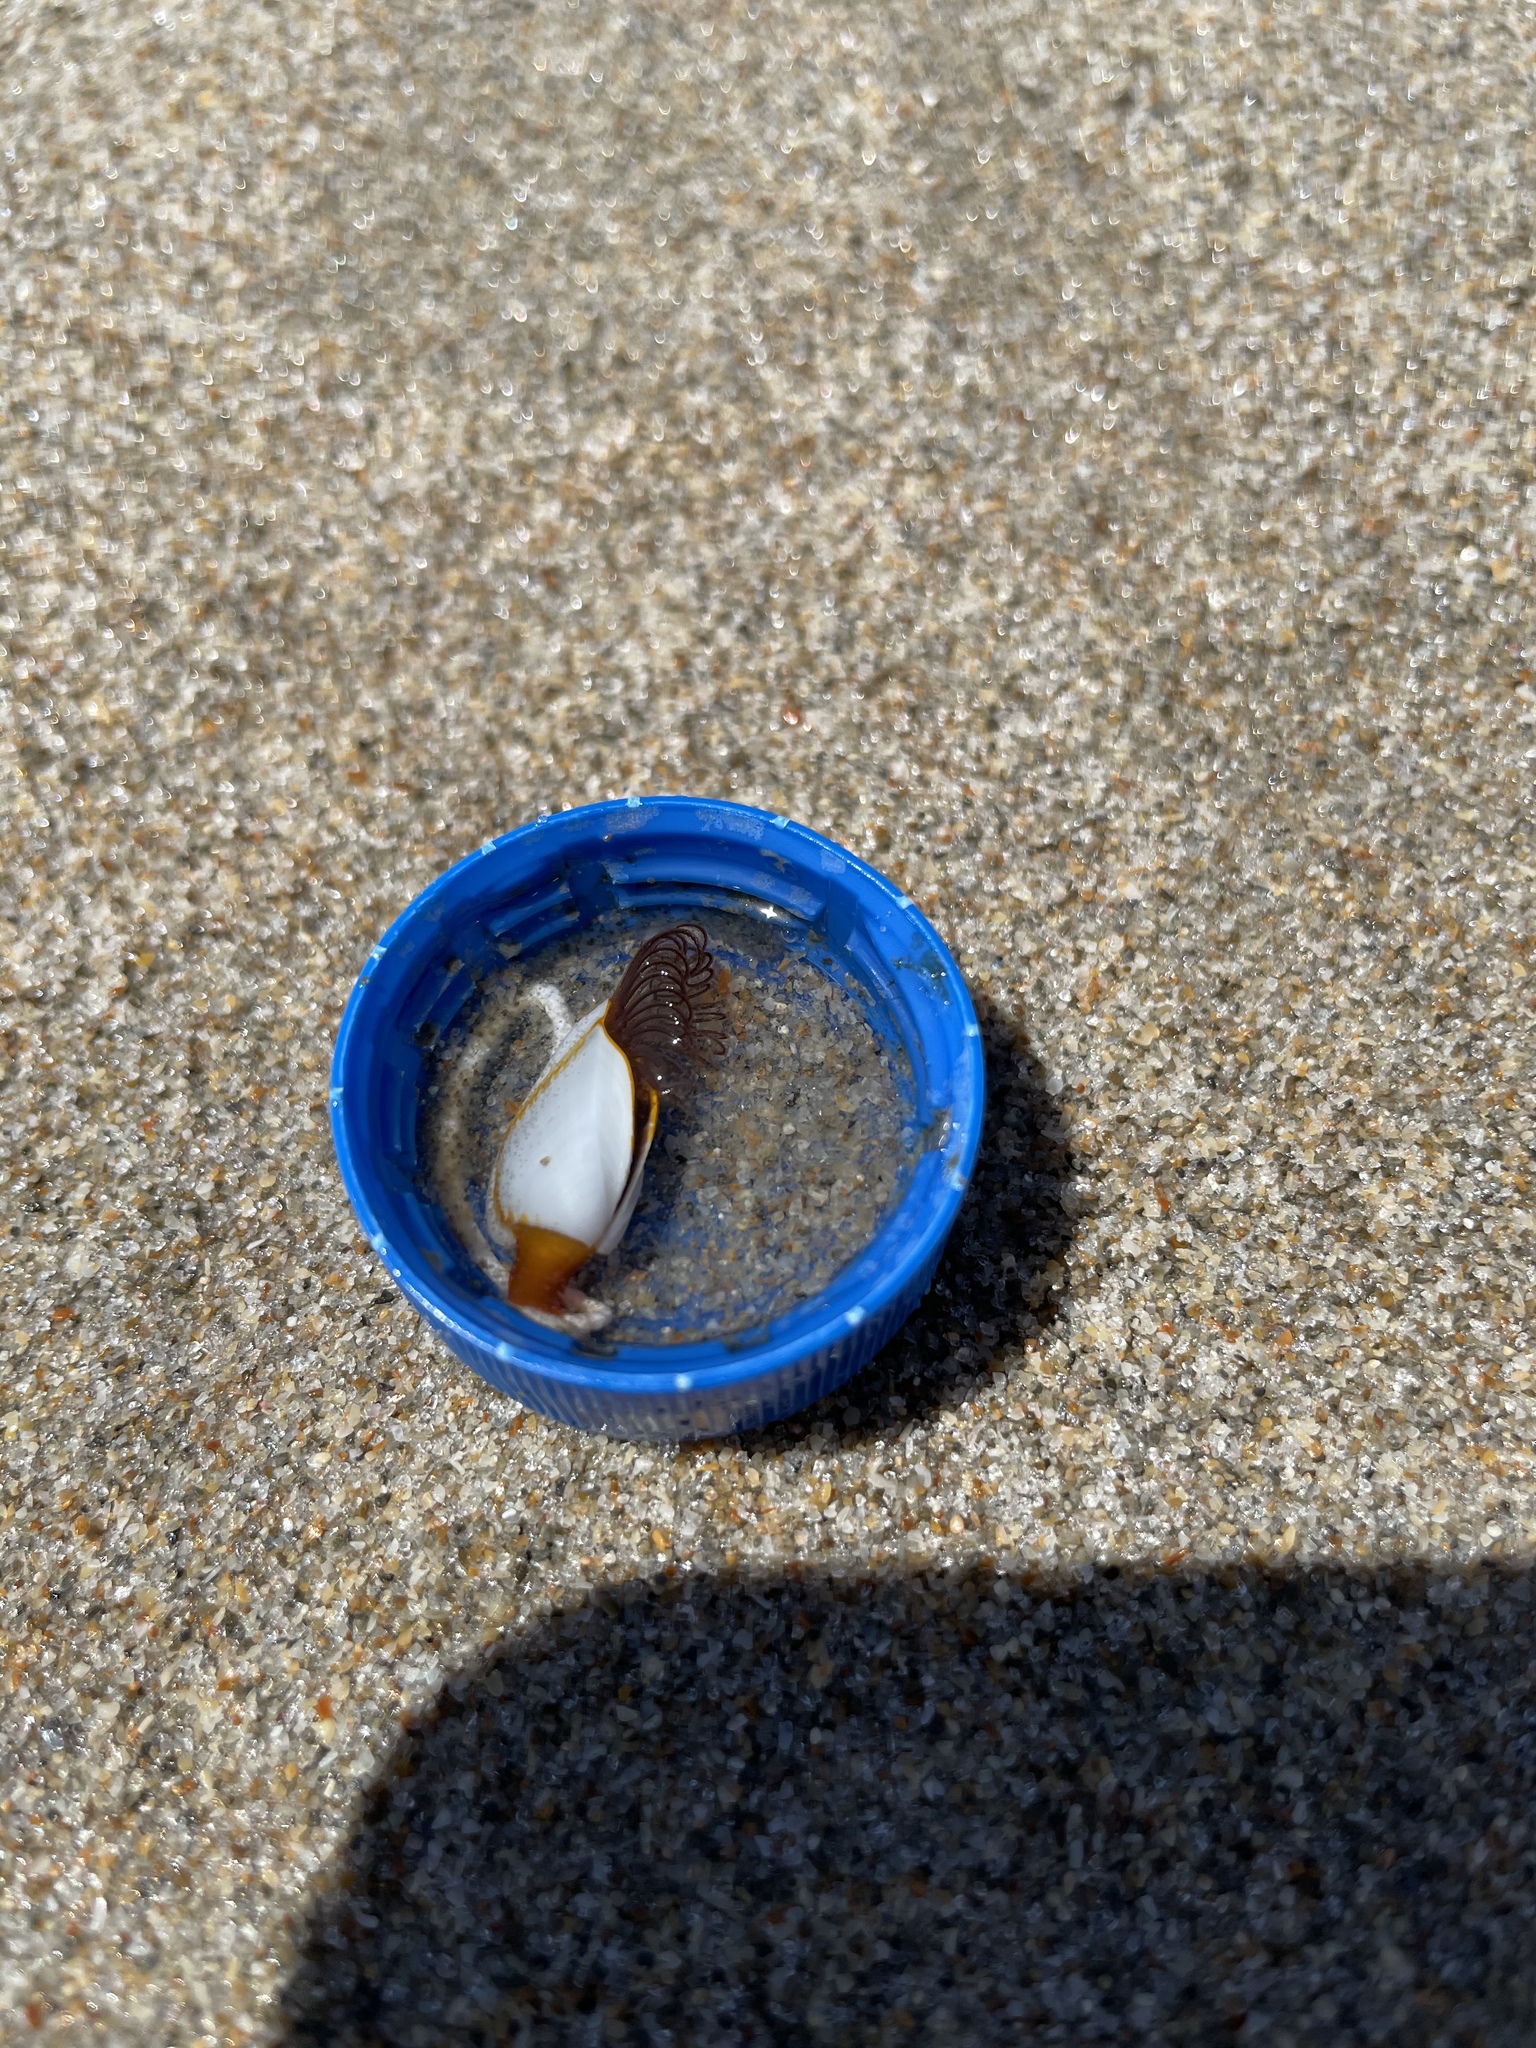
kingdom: Animalia
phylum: Arthropoda
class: Maxillopoda
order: Pedunculata
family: Lepadidae
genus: Lepas
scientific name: Lepas anserifera
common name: Goose barnacle
